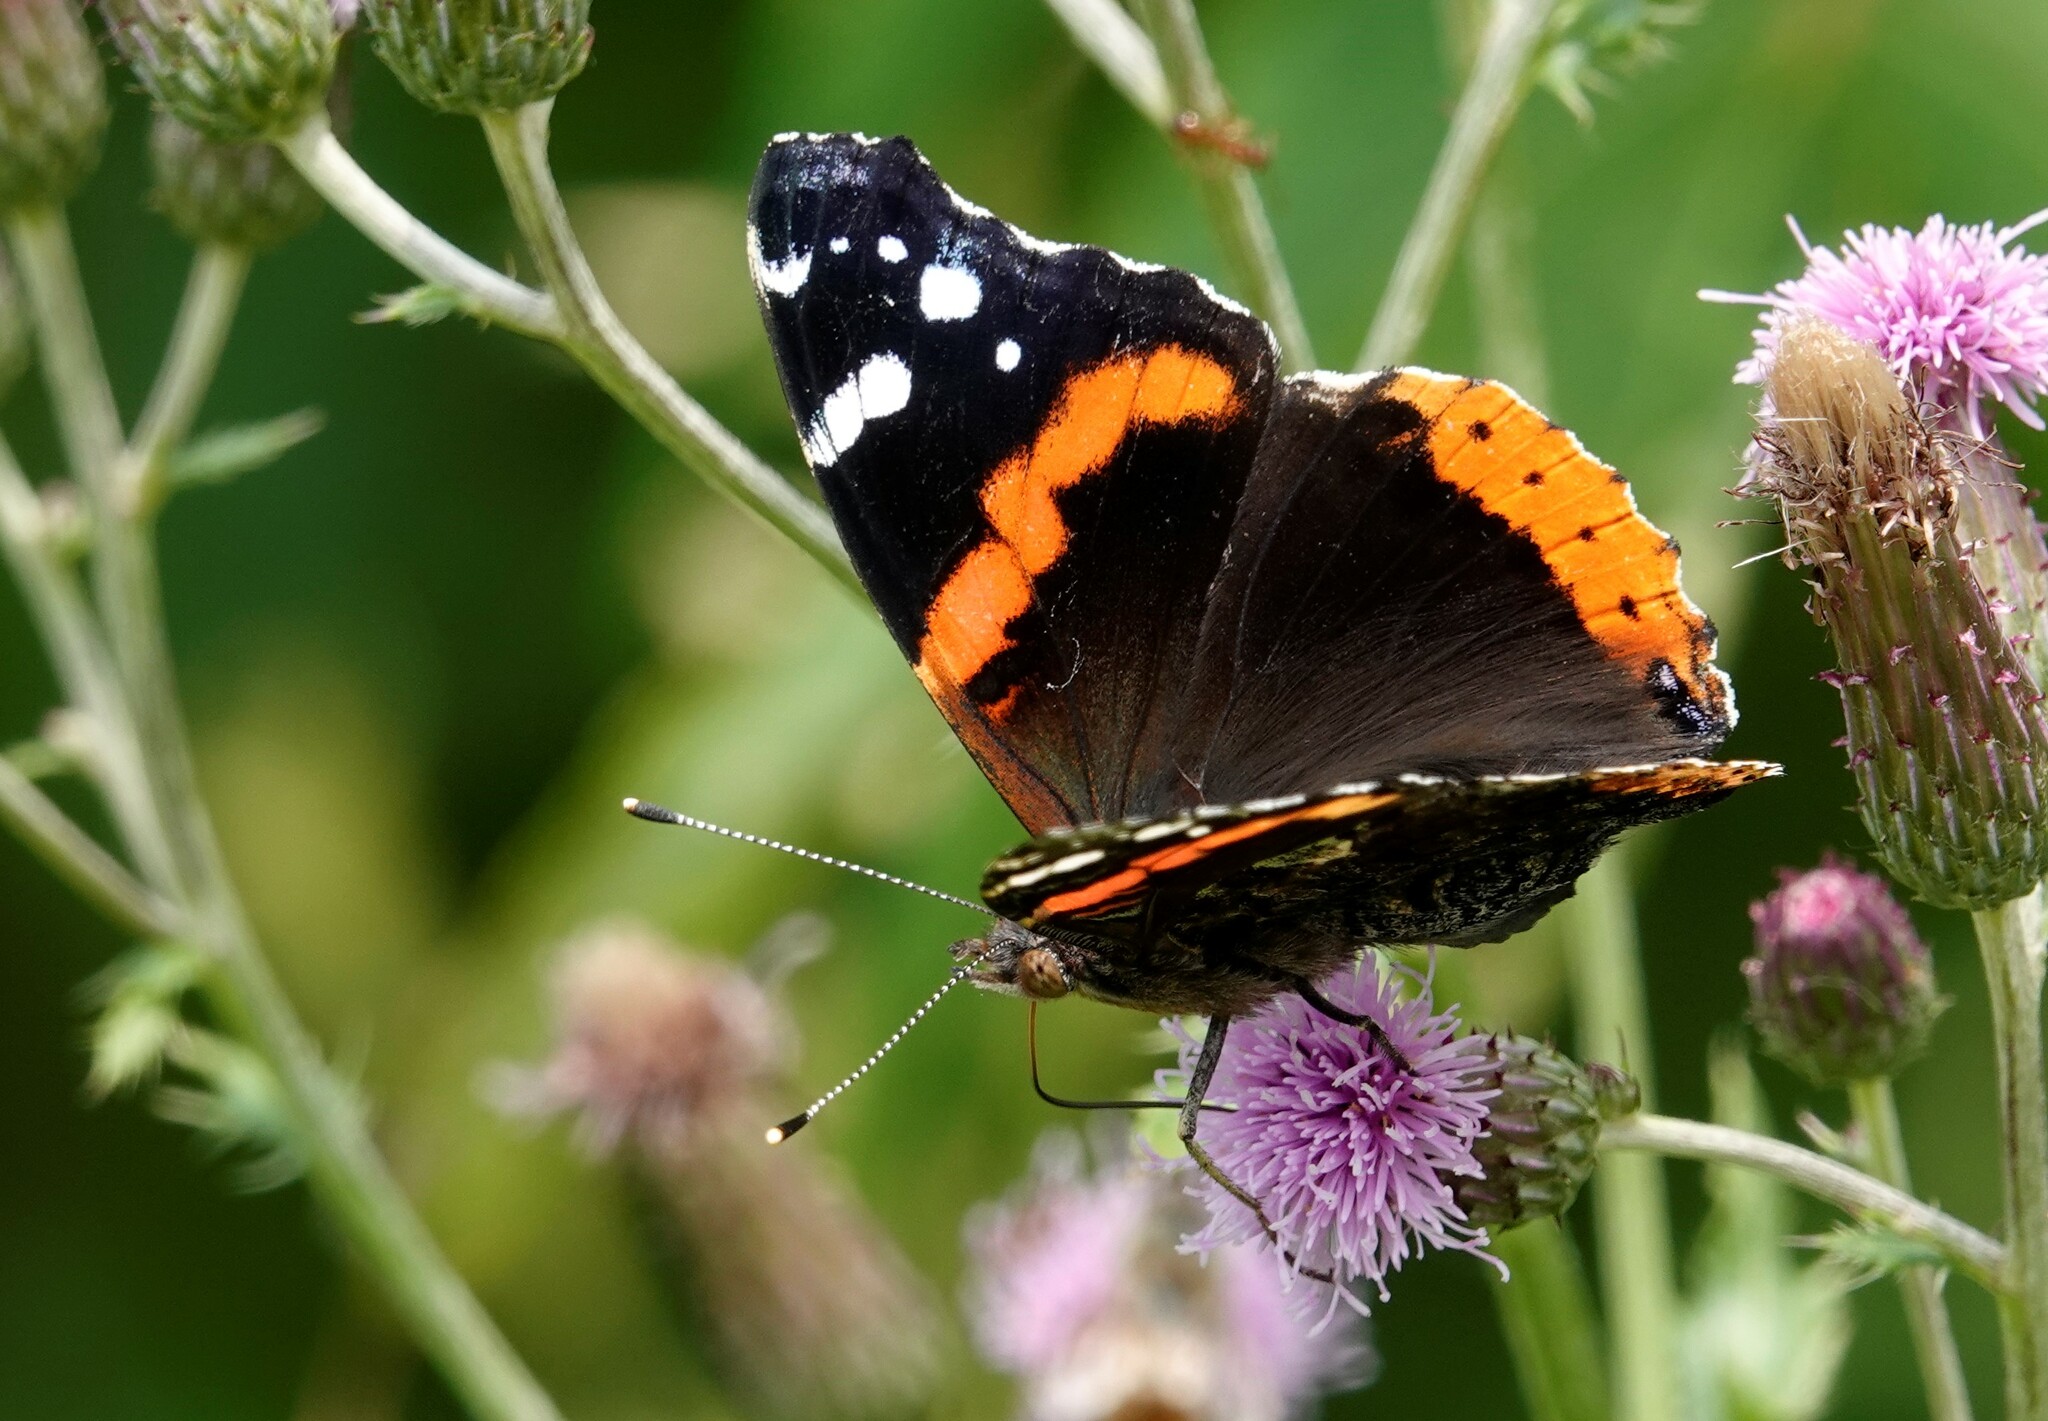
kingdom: Animalia
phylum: Arthropoda
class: Insecta
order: Lepidoptera
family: Nymphalidae
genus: Vanessa
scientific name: Vanessa atalanta
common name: Red admiral
